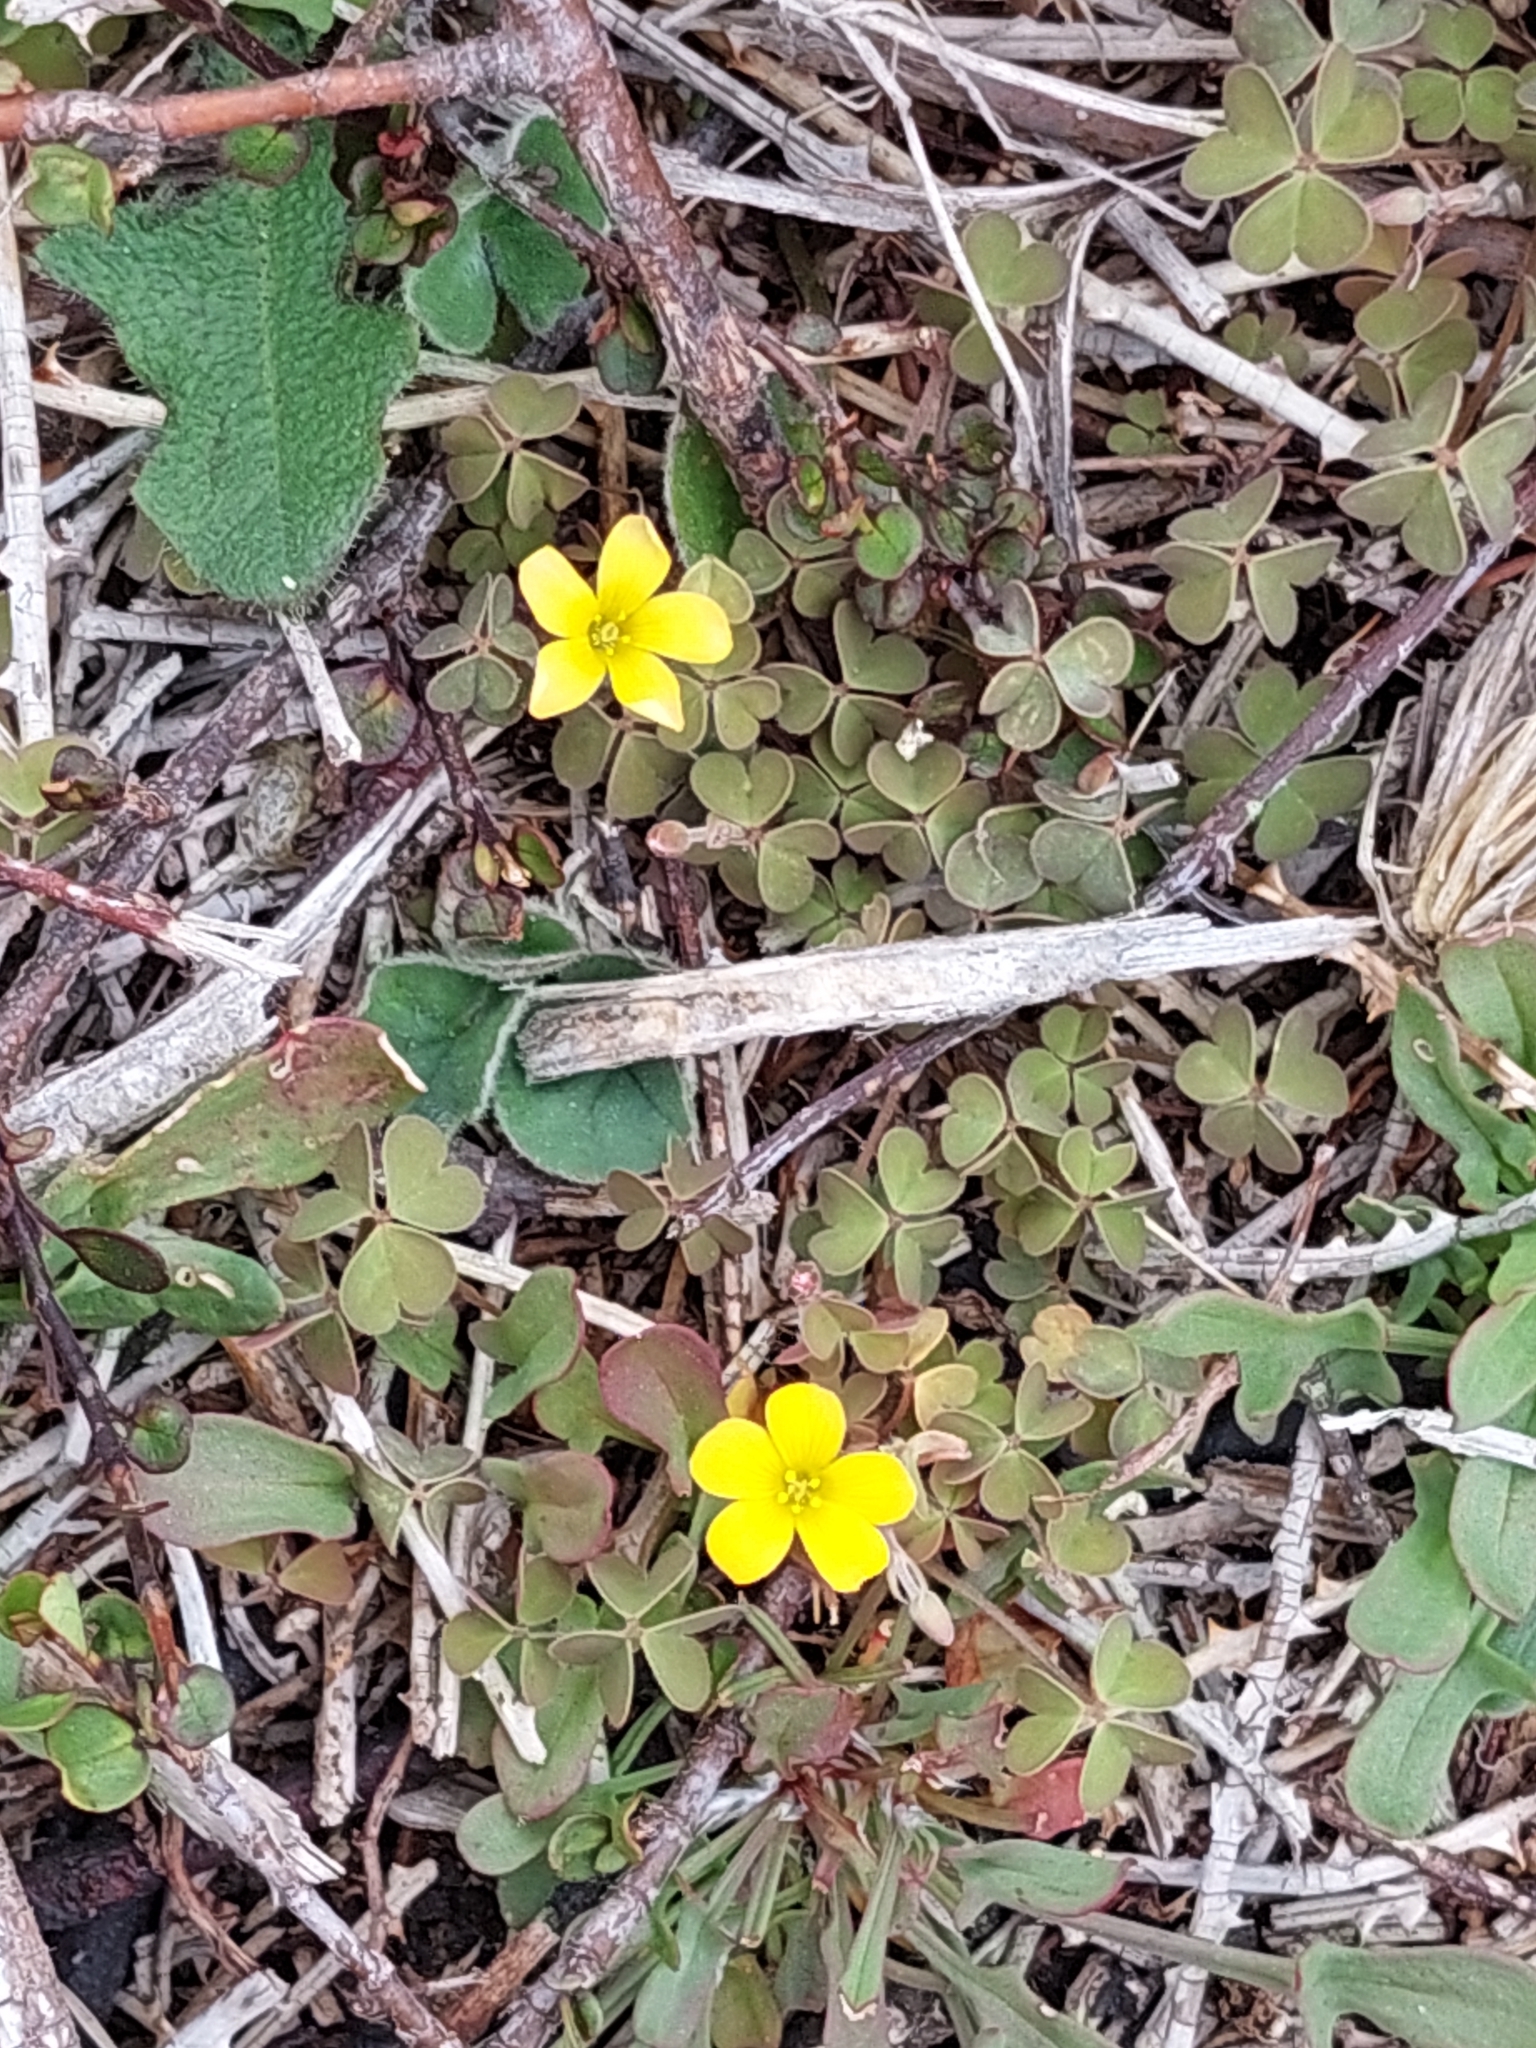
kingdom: Plantae
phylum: Tracheophyta
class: Magnoliopsida
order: Oxalidales
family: Oxalidaceae
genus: Oxalis
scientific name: Oxalis exilis
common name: Least yellow-sorrel
